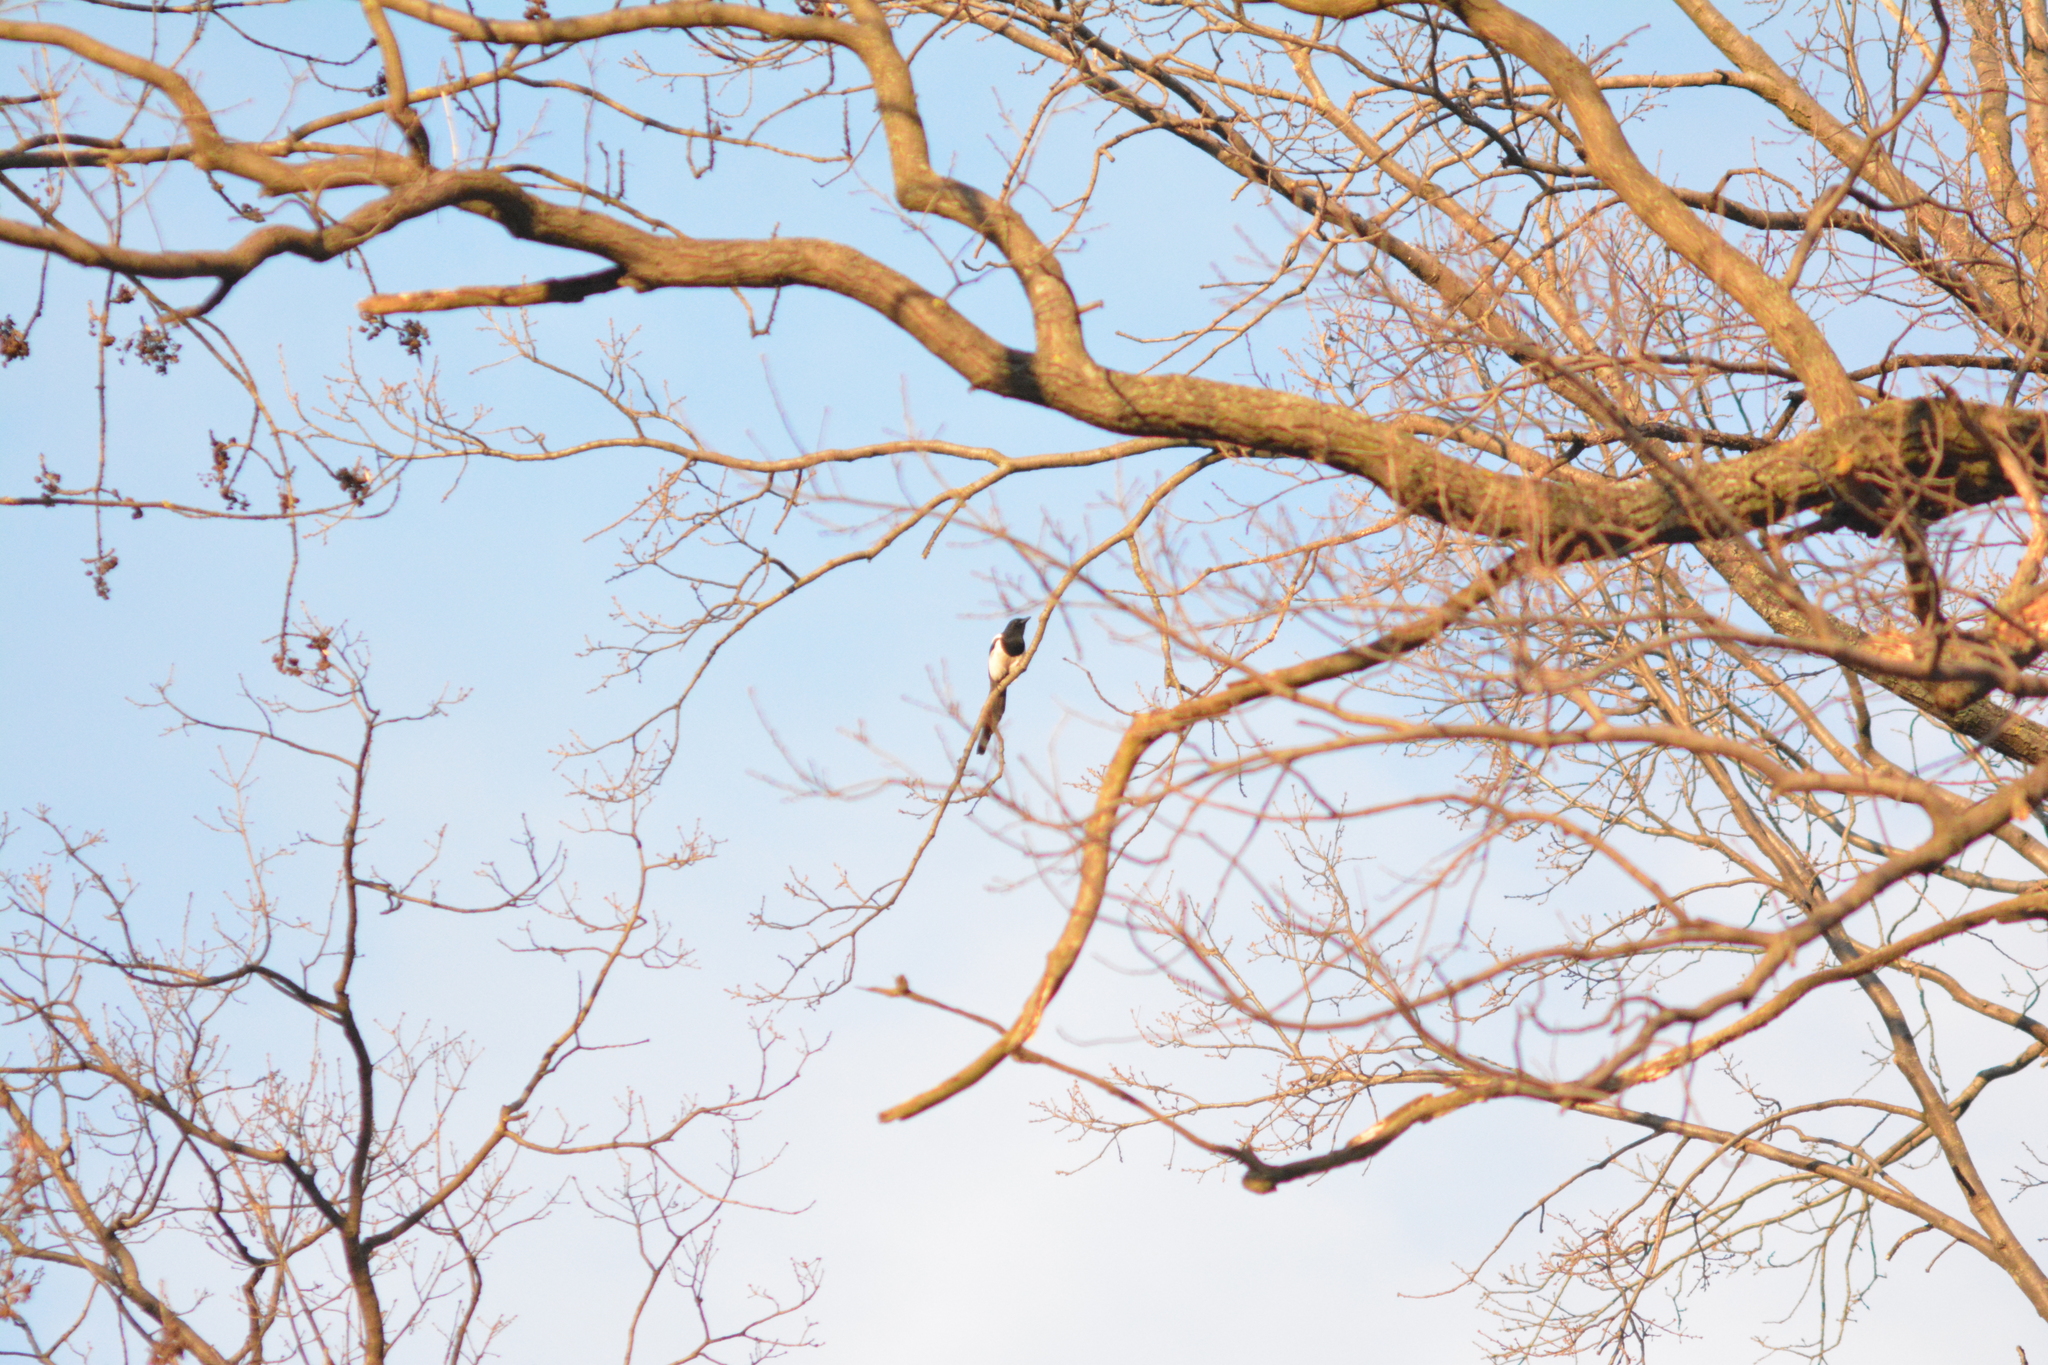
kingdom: Animalia
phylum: Chordata
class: Aves
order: Passeriformes
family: Corvidae
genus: Pica
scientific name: Pica pica
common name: Eurasian magpie
